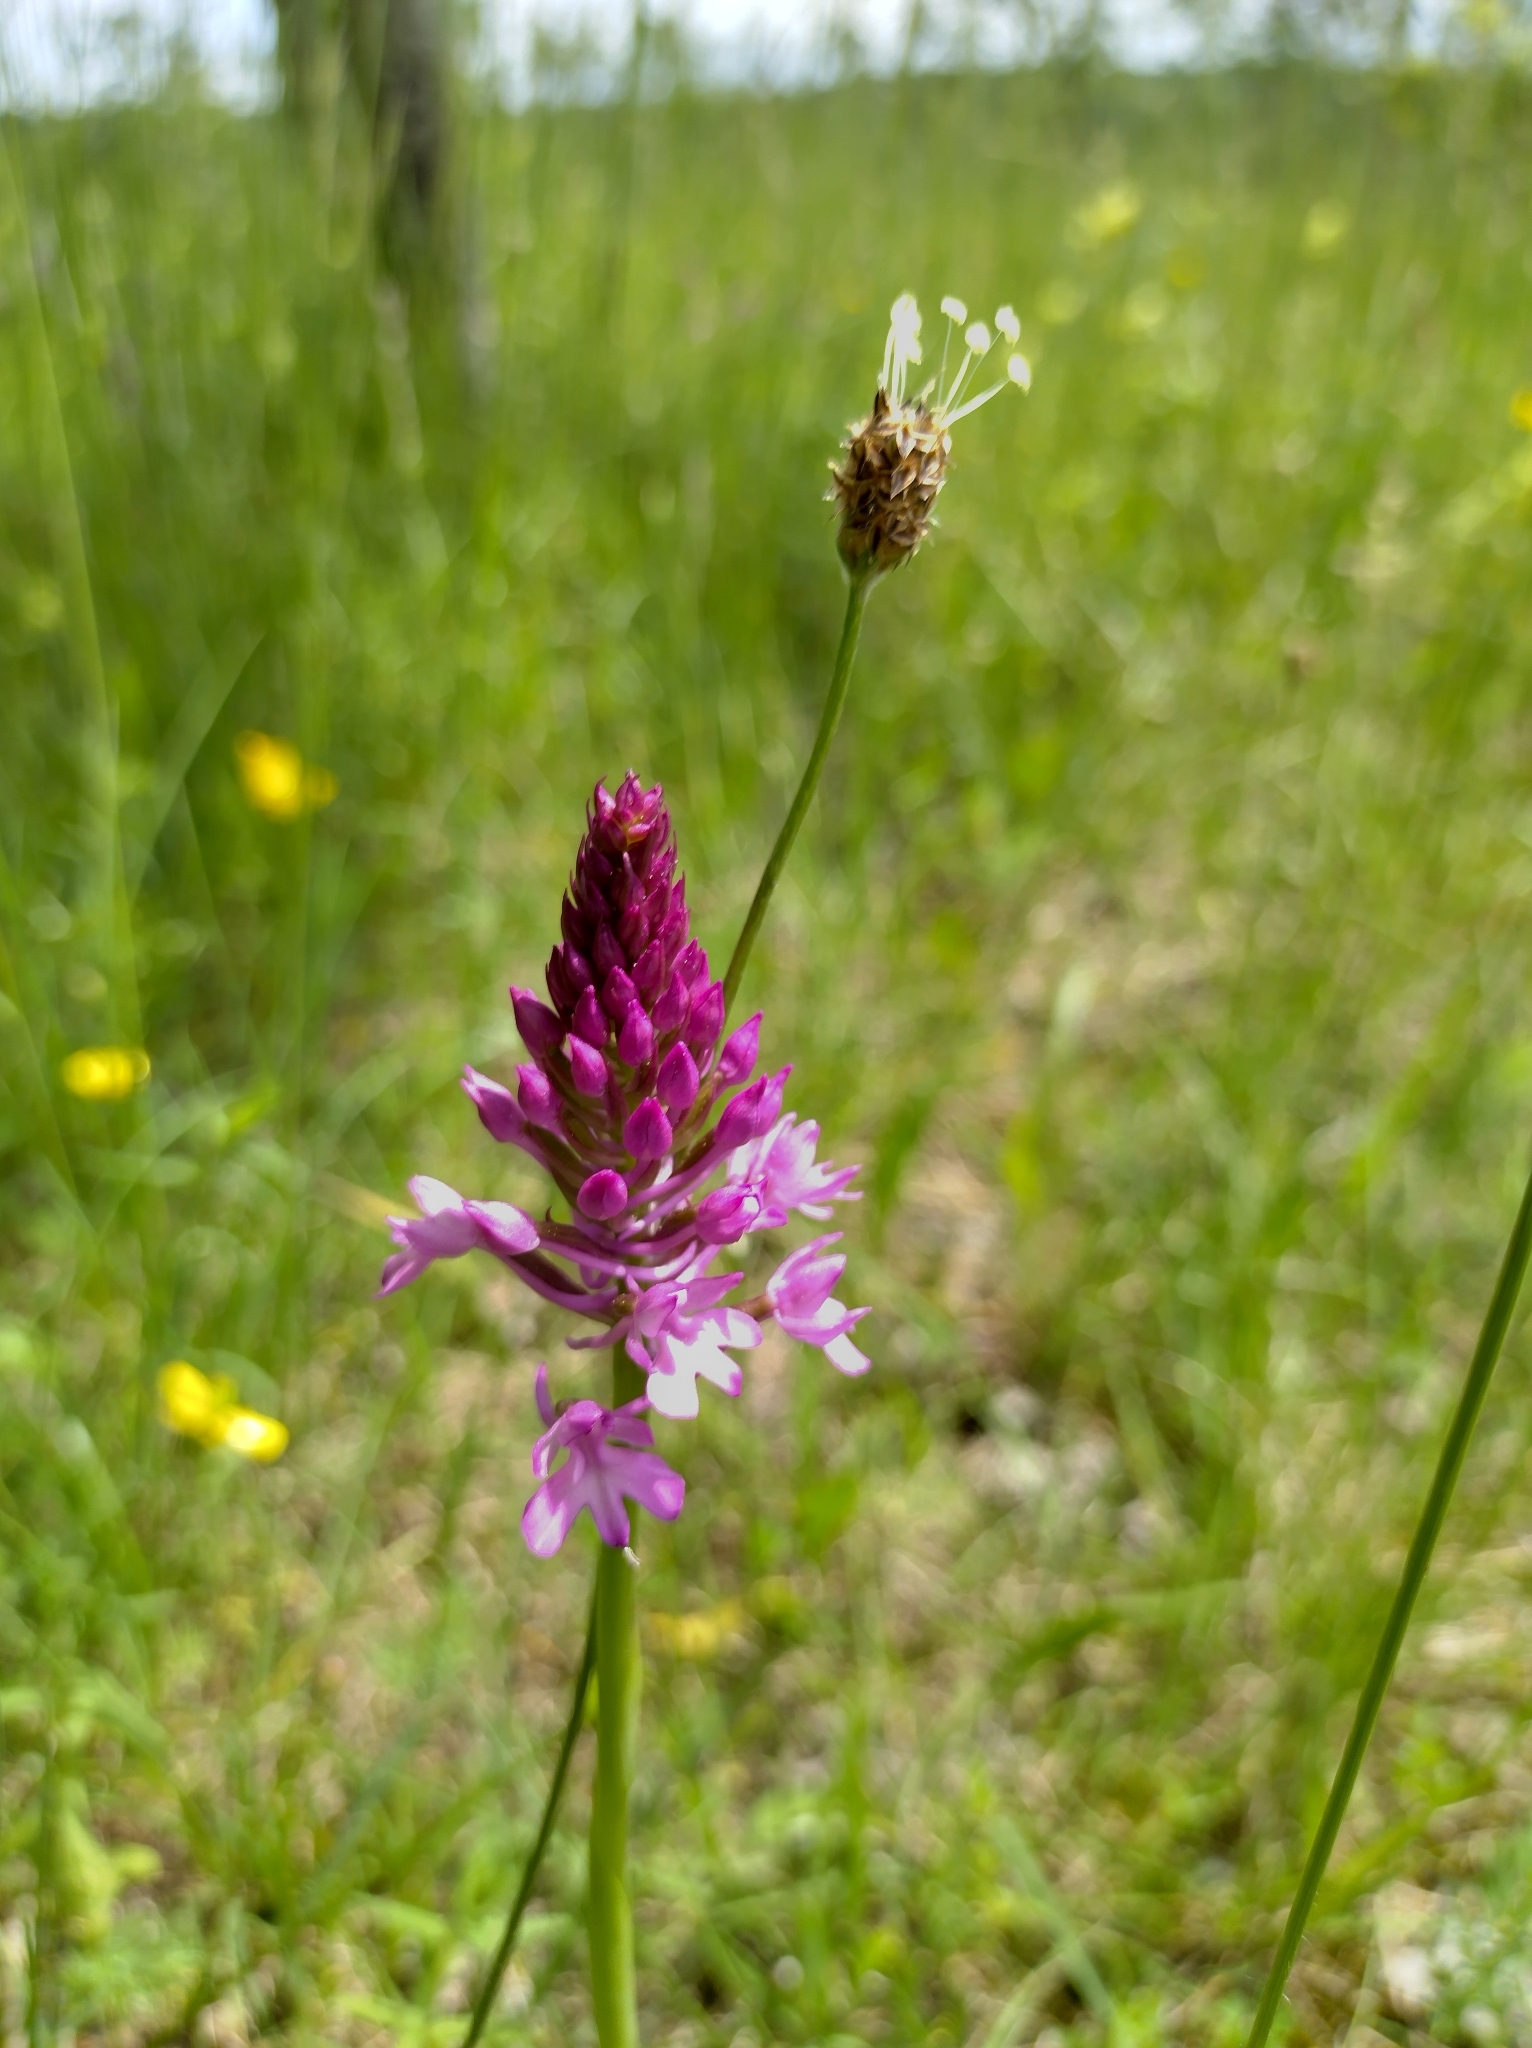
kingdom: Plantae
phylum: Tracheophyta
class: Liliopsida
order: Asparagales
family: Orchidaceae
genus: Anacamptis
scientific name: Anacamptis pyramidalis
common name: Pyramidal orchid
